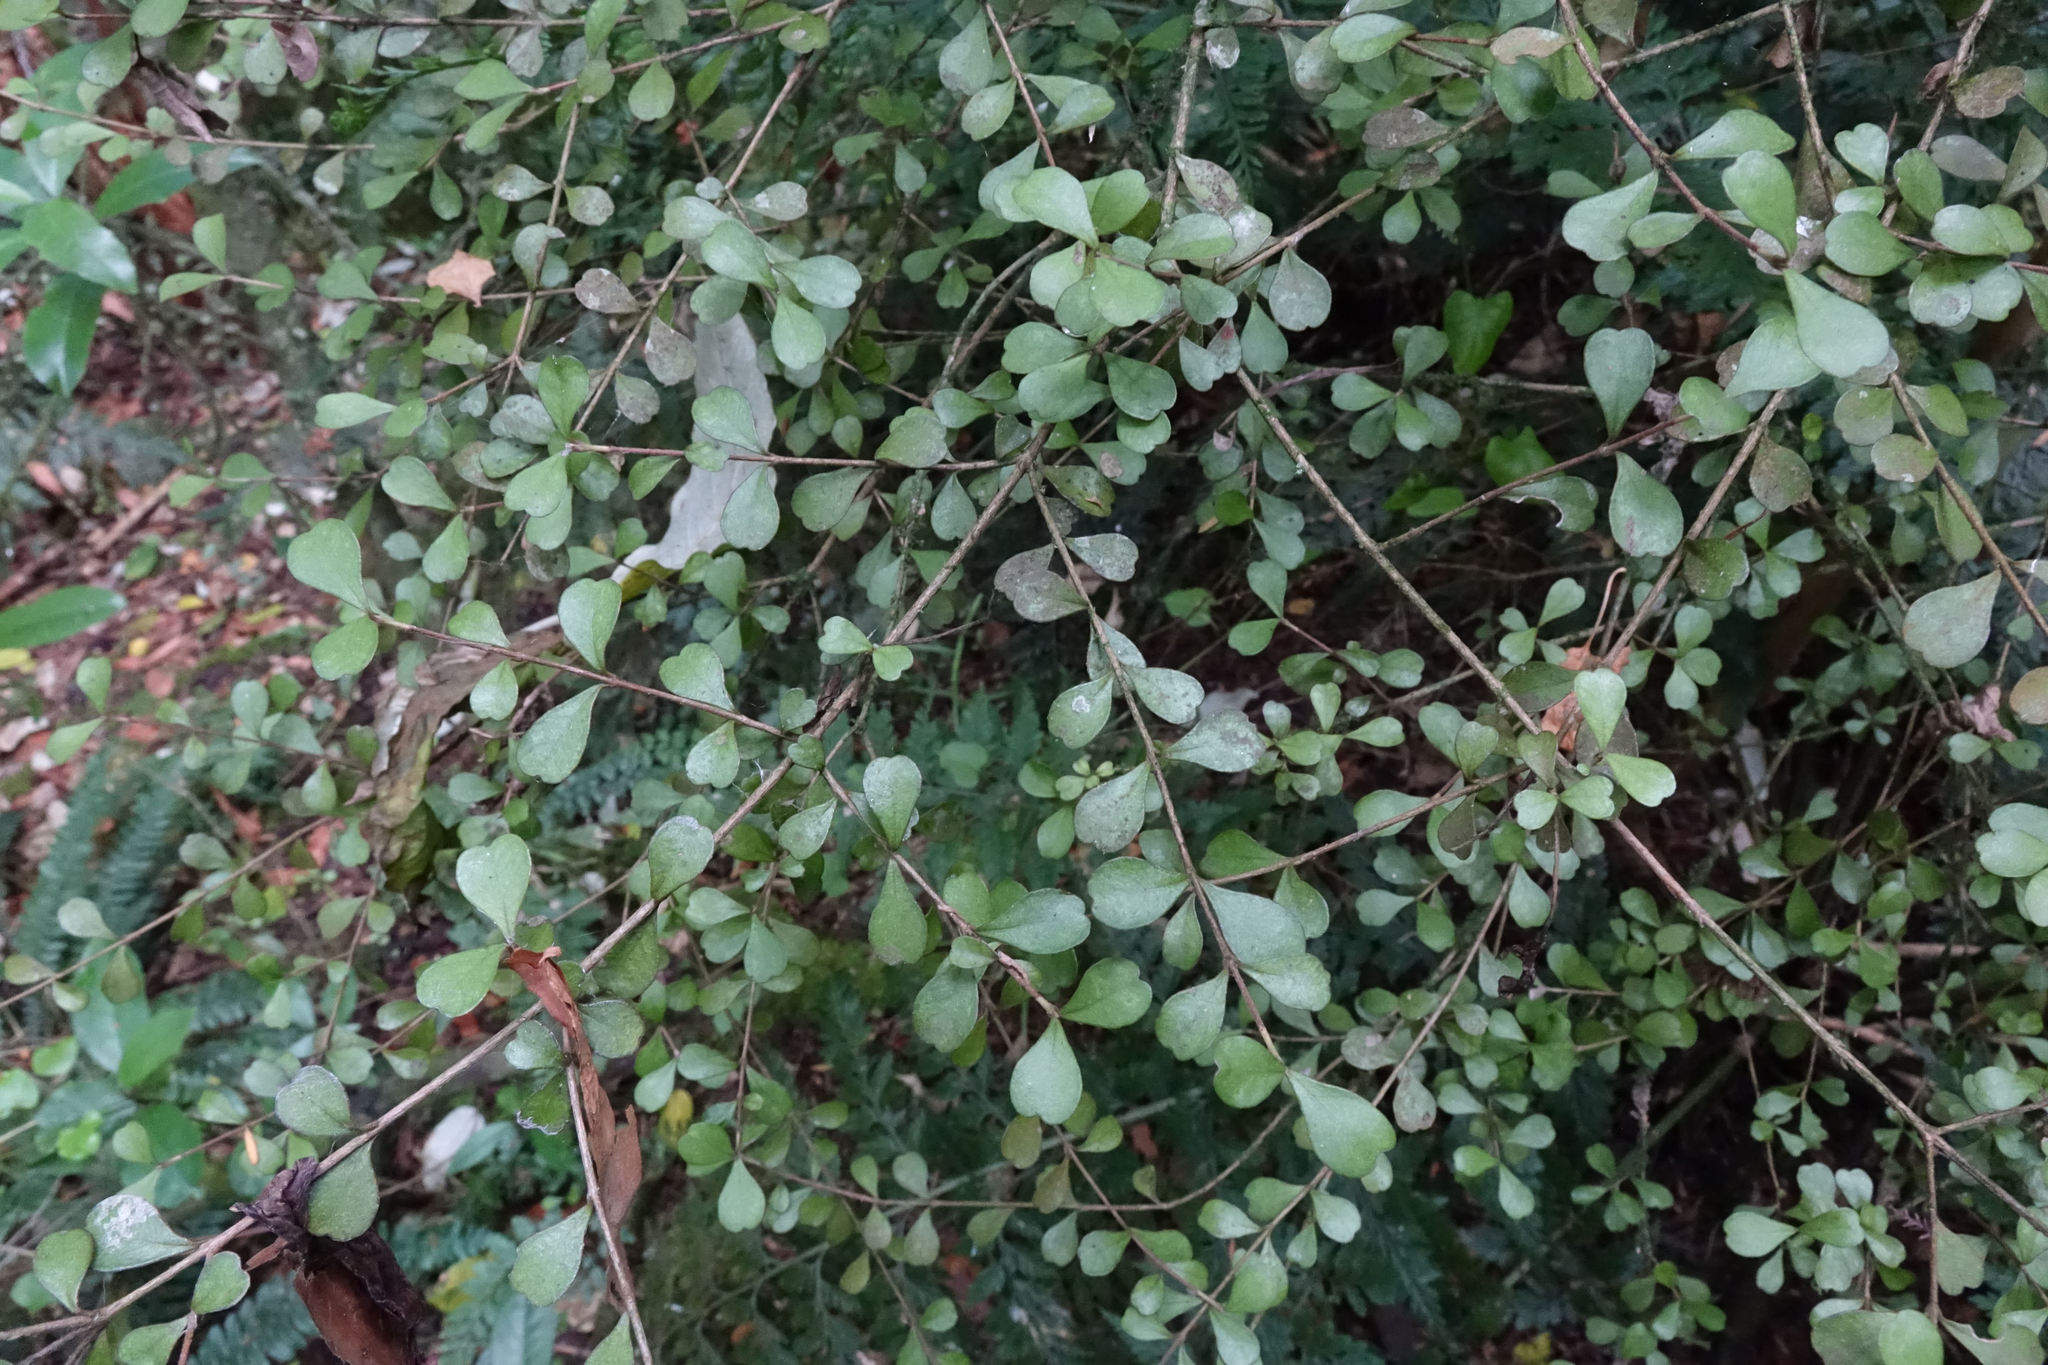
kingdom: Plantae
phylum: Tracheophyta
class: Magnoliopsida
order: Myrtales
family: Myrtaceae
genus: Lophomyrtus
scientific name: Lophomyrtus obcordata
